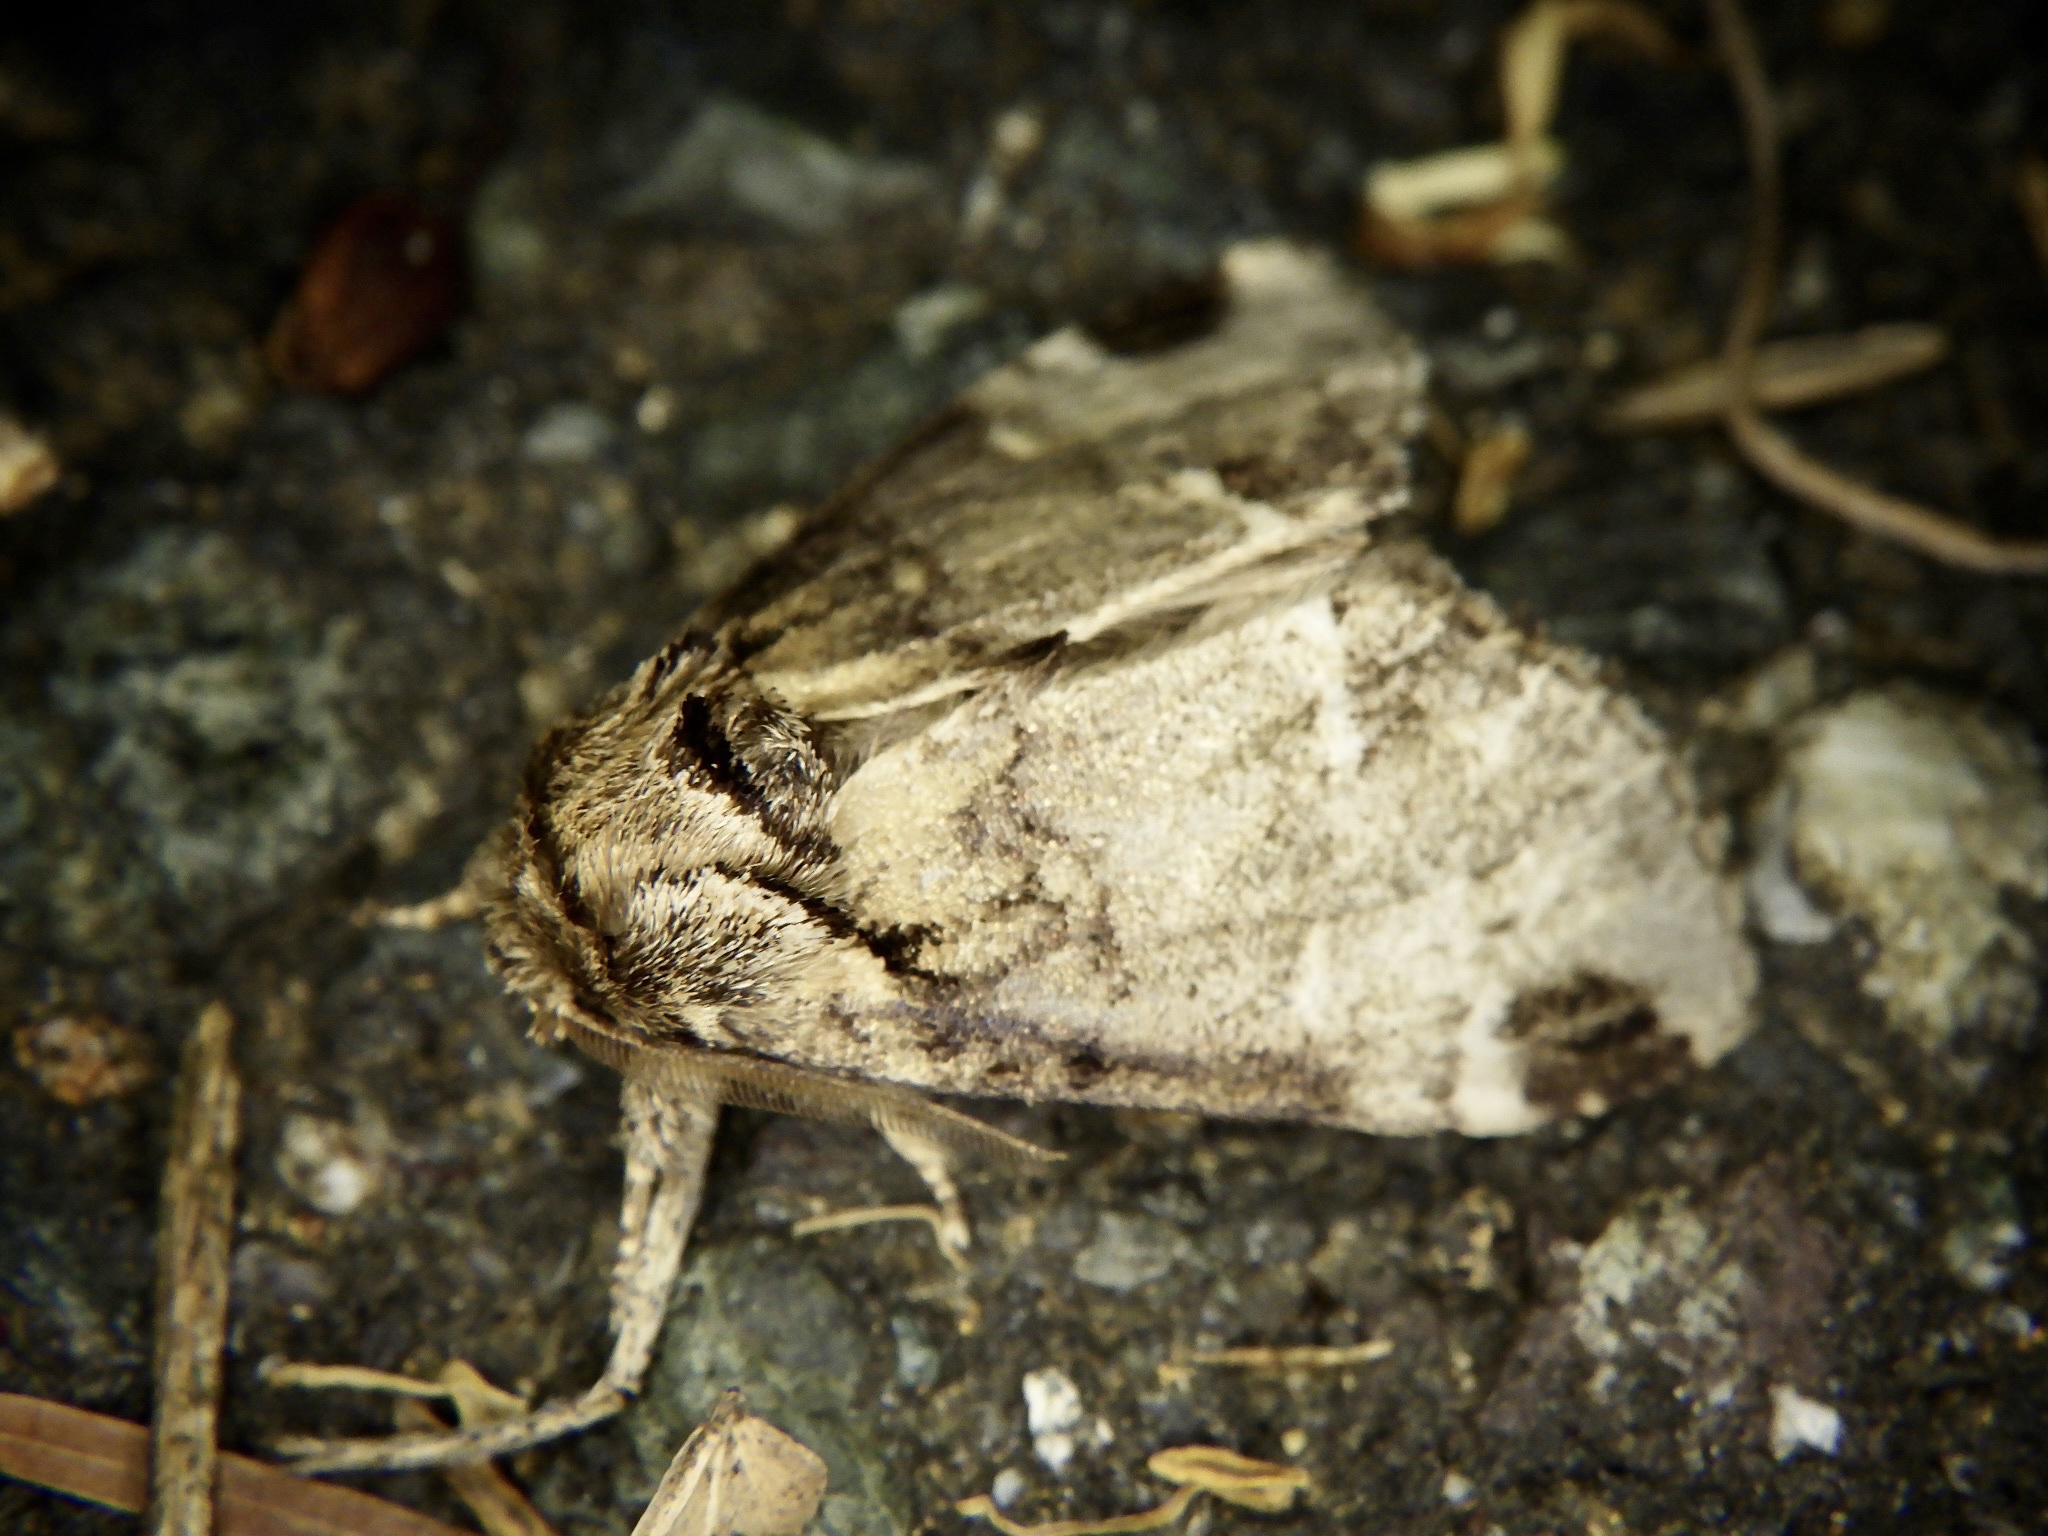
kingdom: Animalia
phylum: Arthropoda
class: Insecta
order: Lepidoptera
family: Notodontidae
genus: Drymonia
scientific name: Drymonia japonica
